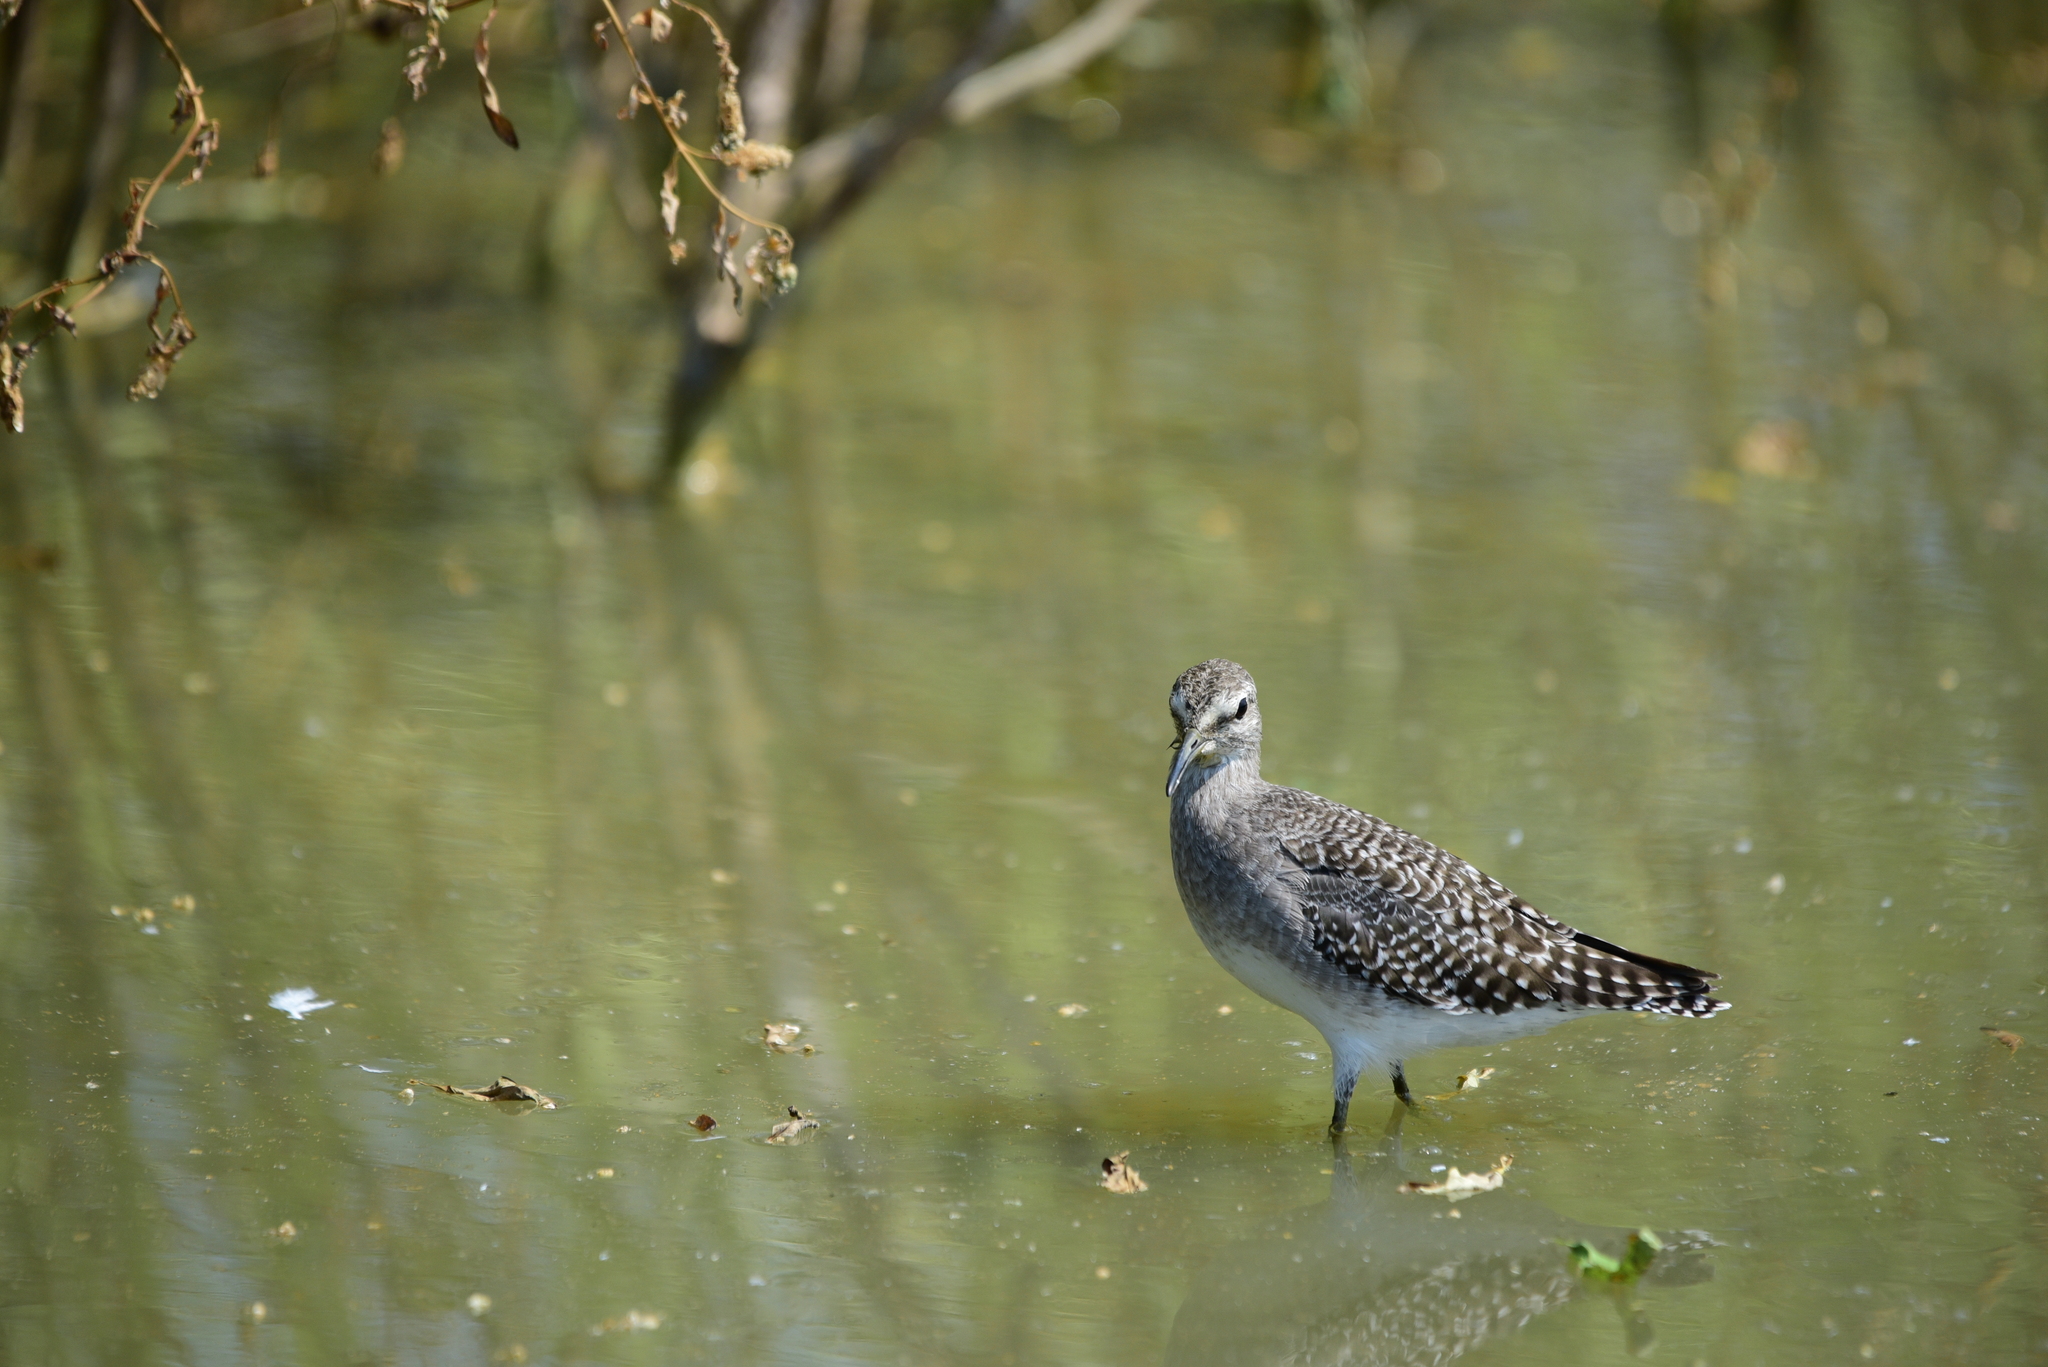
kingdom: Animalia
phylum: Chordata
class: Aves
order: Charadriiformes
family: Scolopacidae
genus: Tringa
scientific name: Tringa glareola
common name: Wood sandpiper
